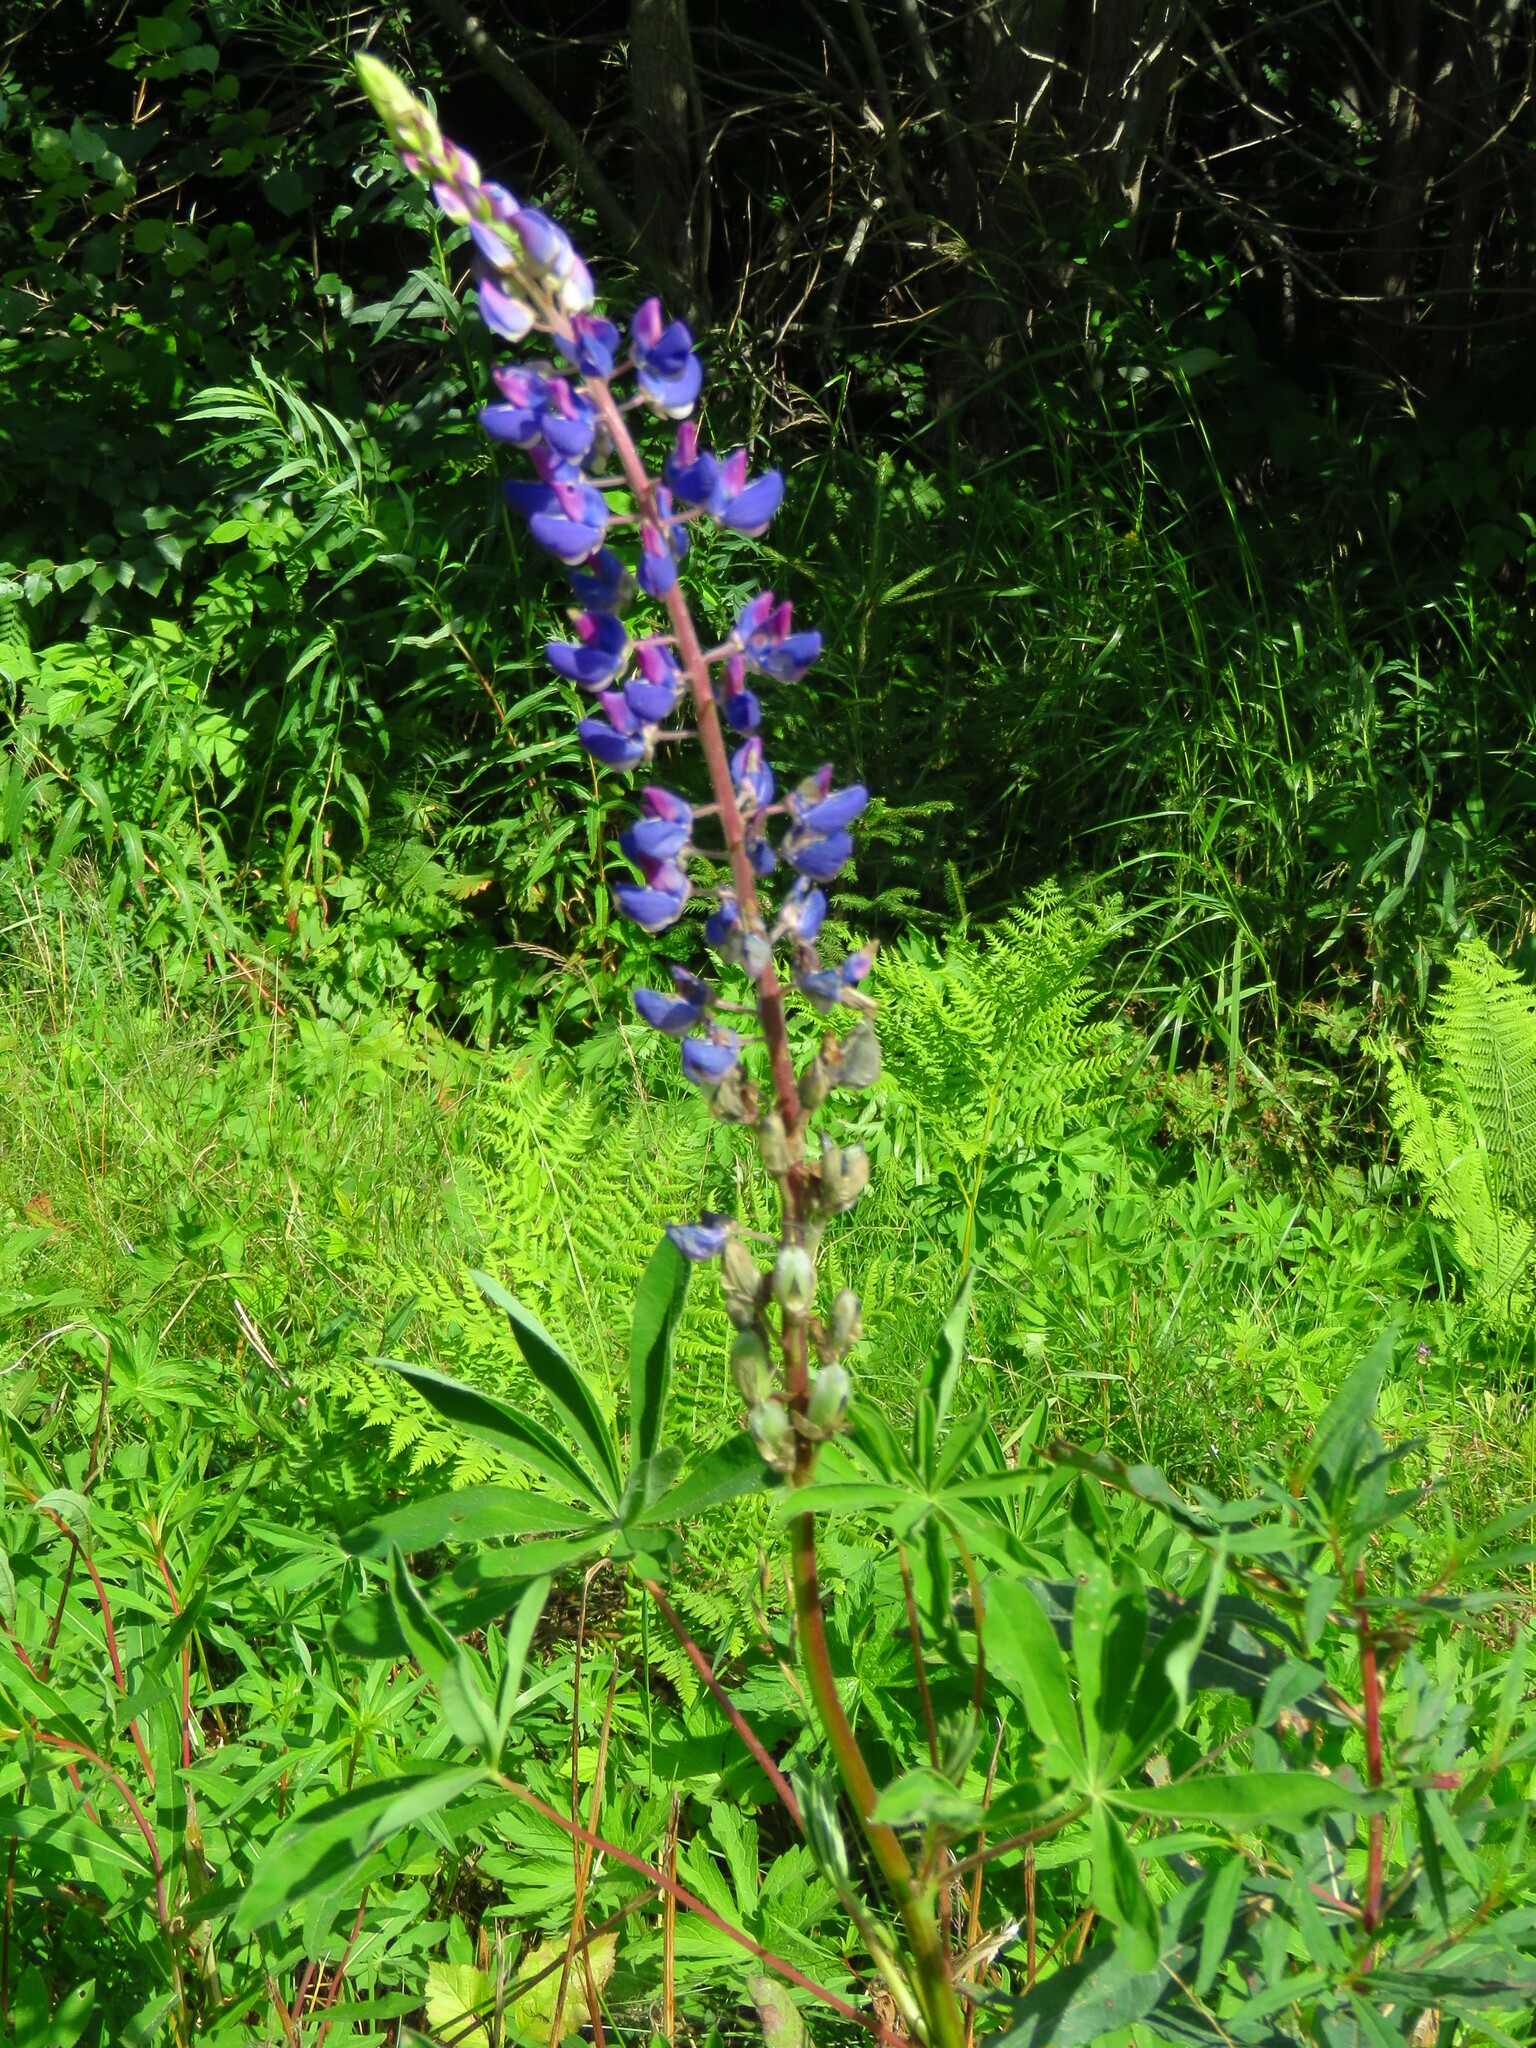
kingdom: Plantae
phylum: Tracheophyta
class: Magnoliopsida
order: Fabales
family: Fabaceae
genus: Lupinus
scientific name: Lupinus polyphyllus
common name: Garden lupin
